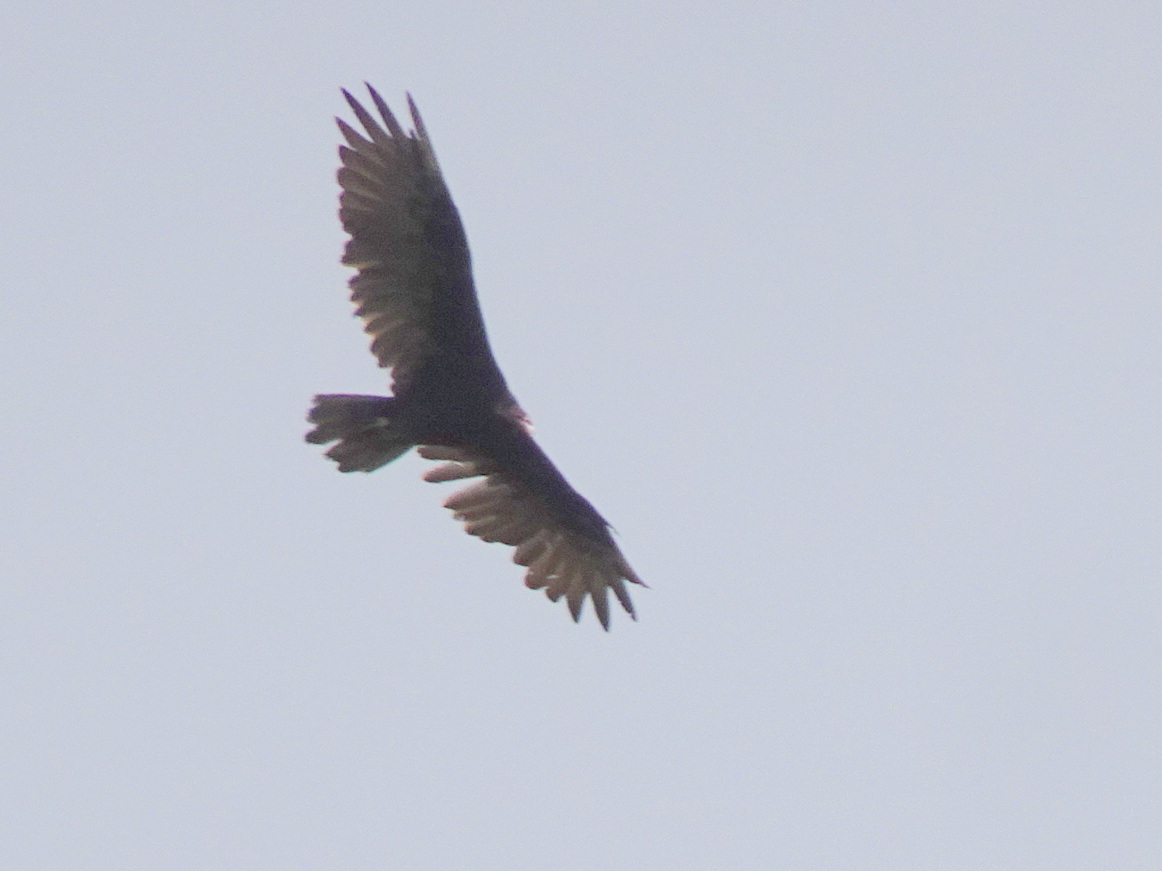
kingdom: Animalia
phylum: Chordata
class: Aves
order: Accipitriformes
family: Cathartidae
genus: Cathartes
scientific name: Cathartes aura
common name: Turkey vulture
